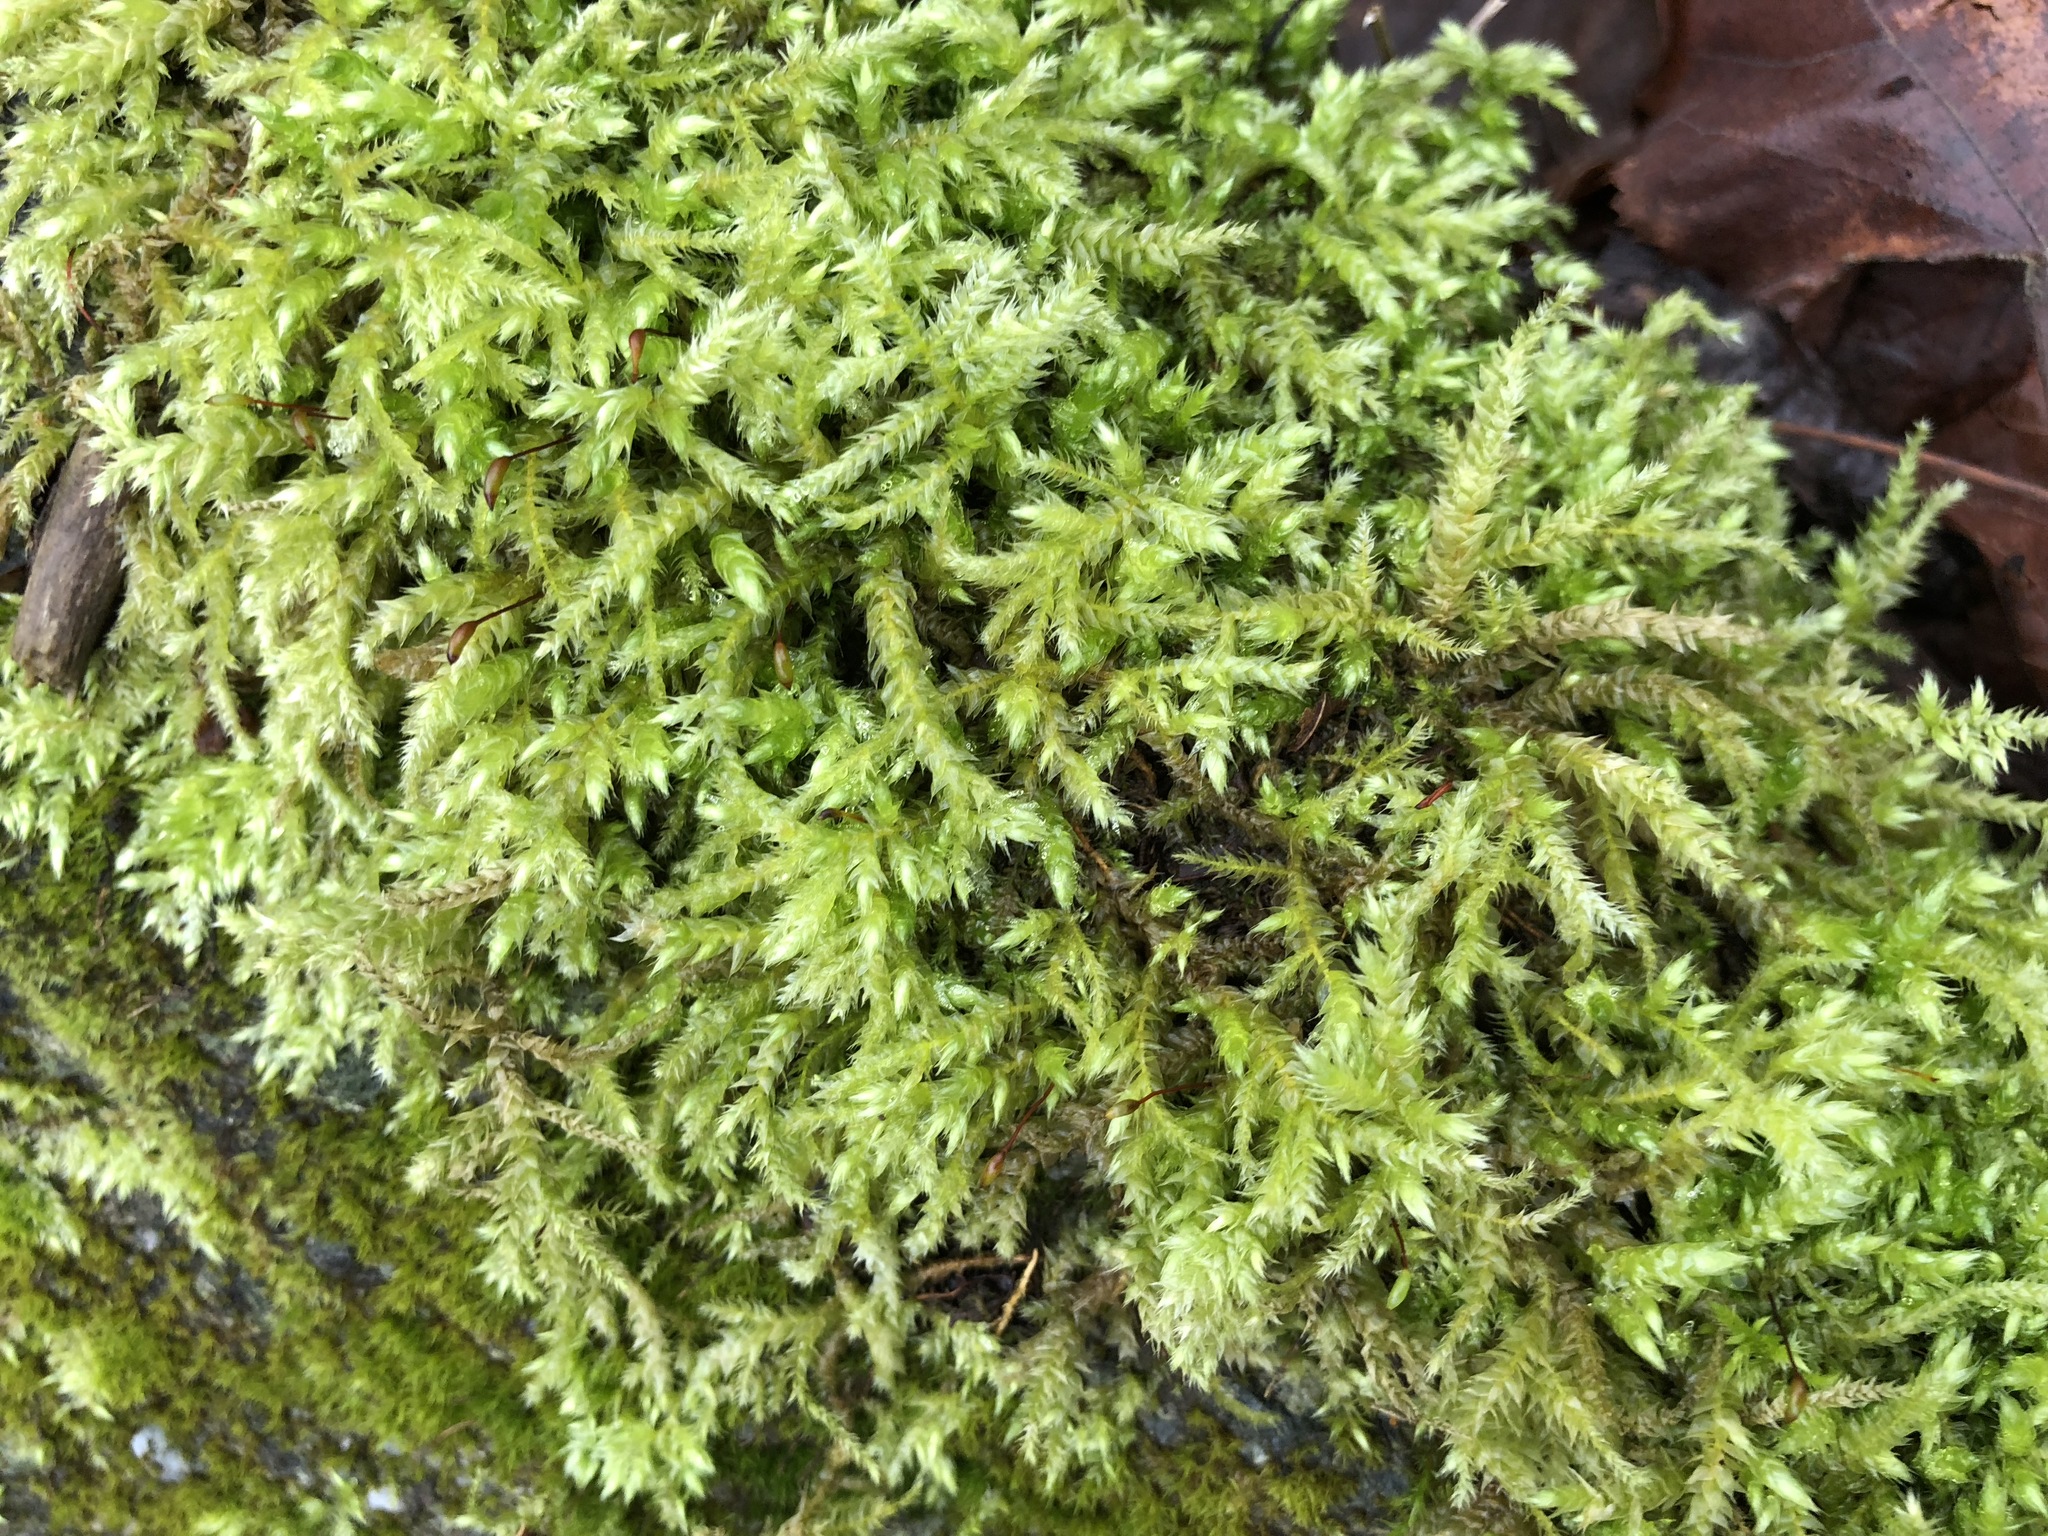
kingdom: Plantae
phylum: Bryophyta
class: Bryopsida
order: Hypnales
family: Brachytheciaceae
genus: Brachythecium
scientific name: Brachythecium rutabulum
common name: Rough-stalked feather-moss
